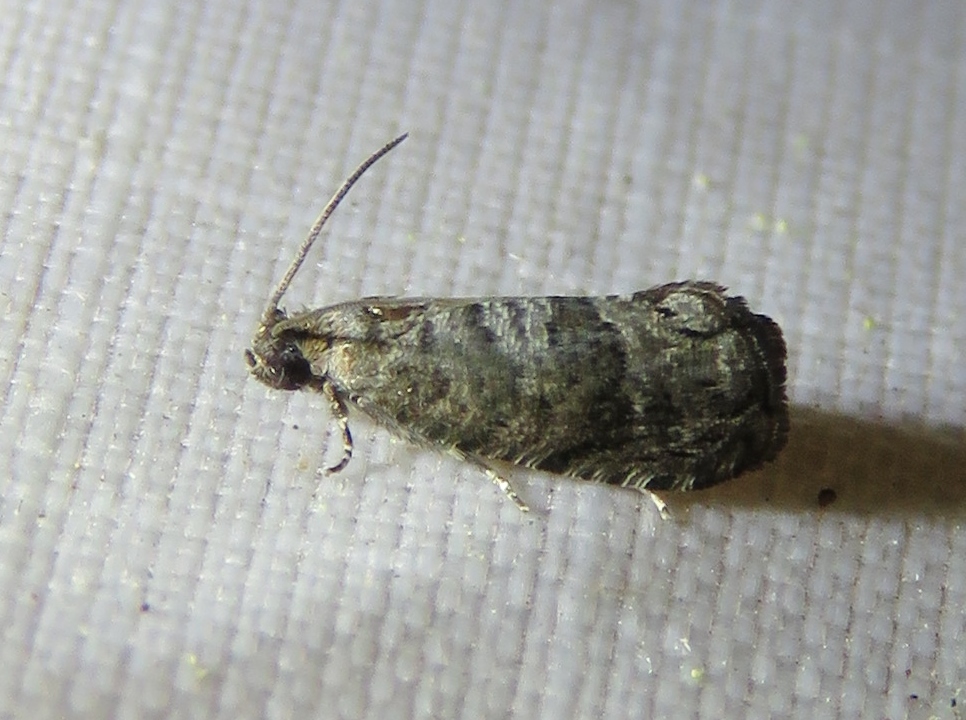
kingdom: Animalia
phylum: Arthropoda
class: Insecta
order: Lepidoptera
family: Noctuidae
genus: Aspila
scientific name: Aspila
